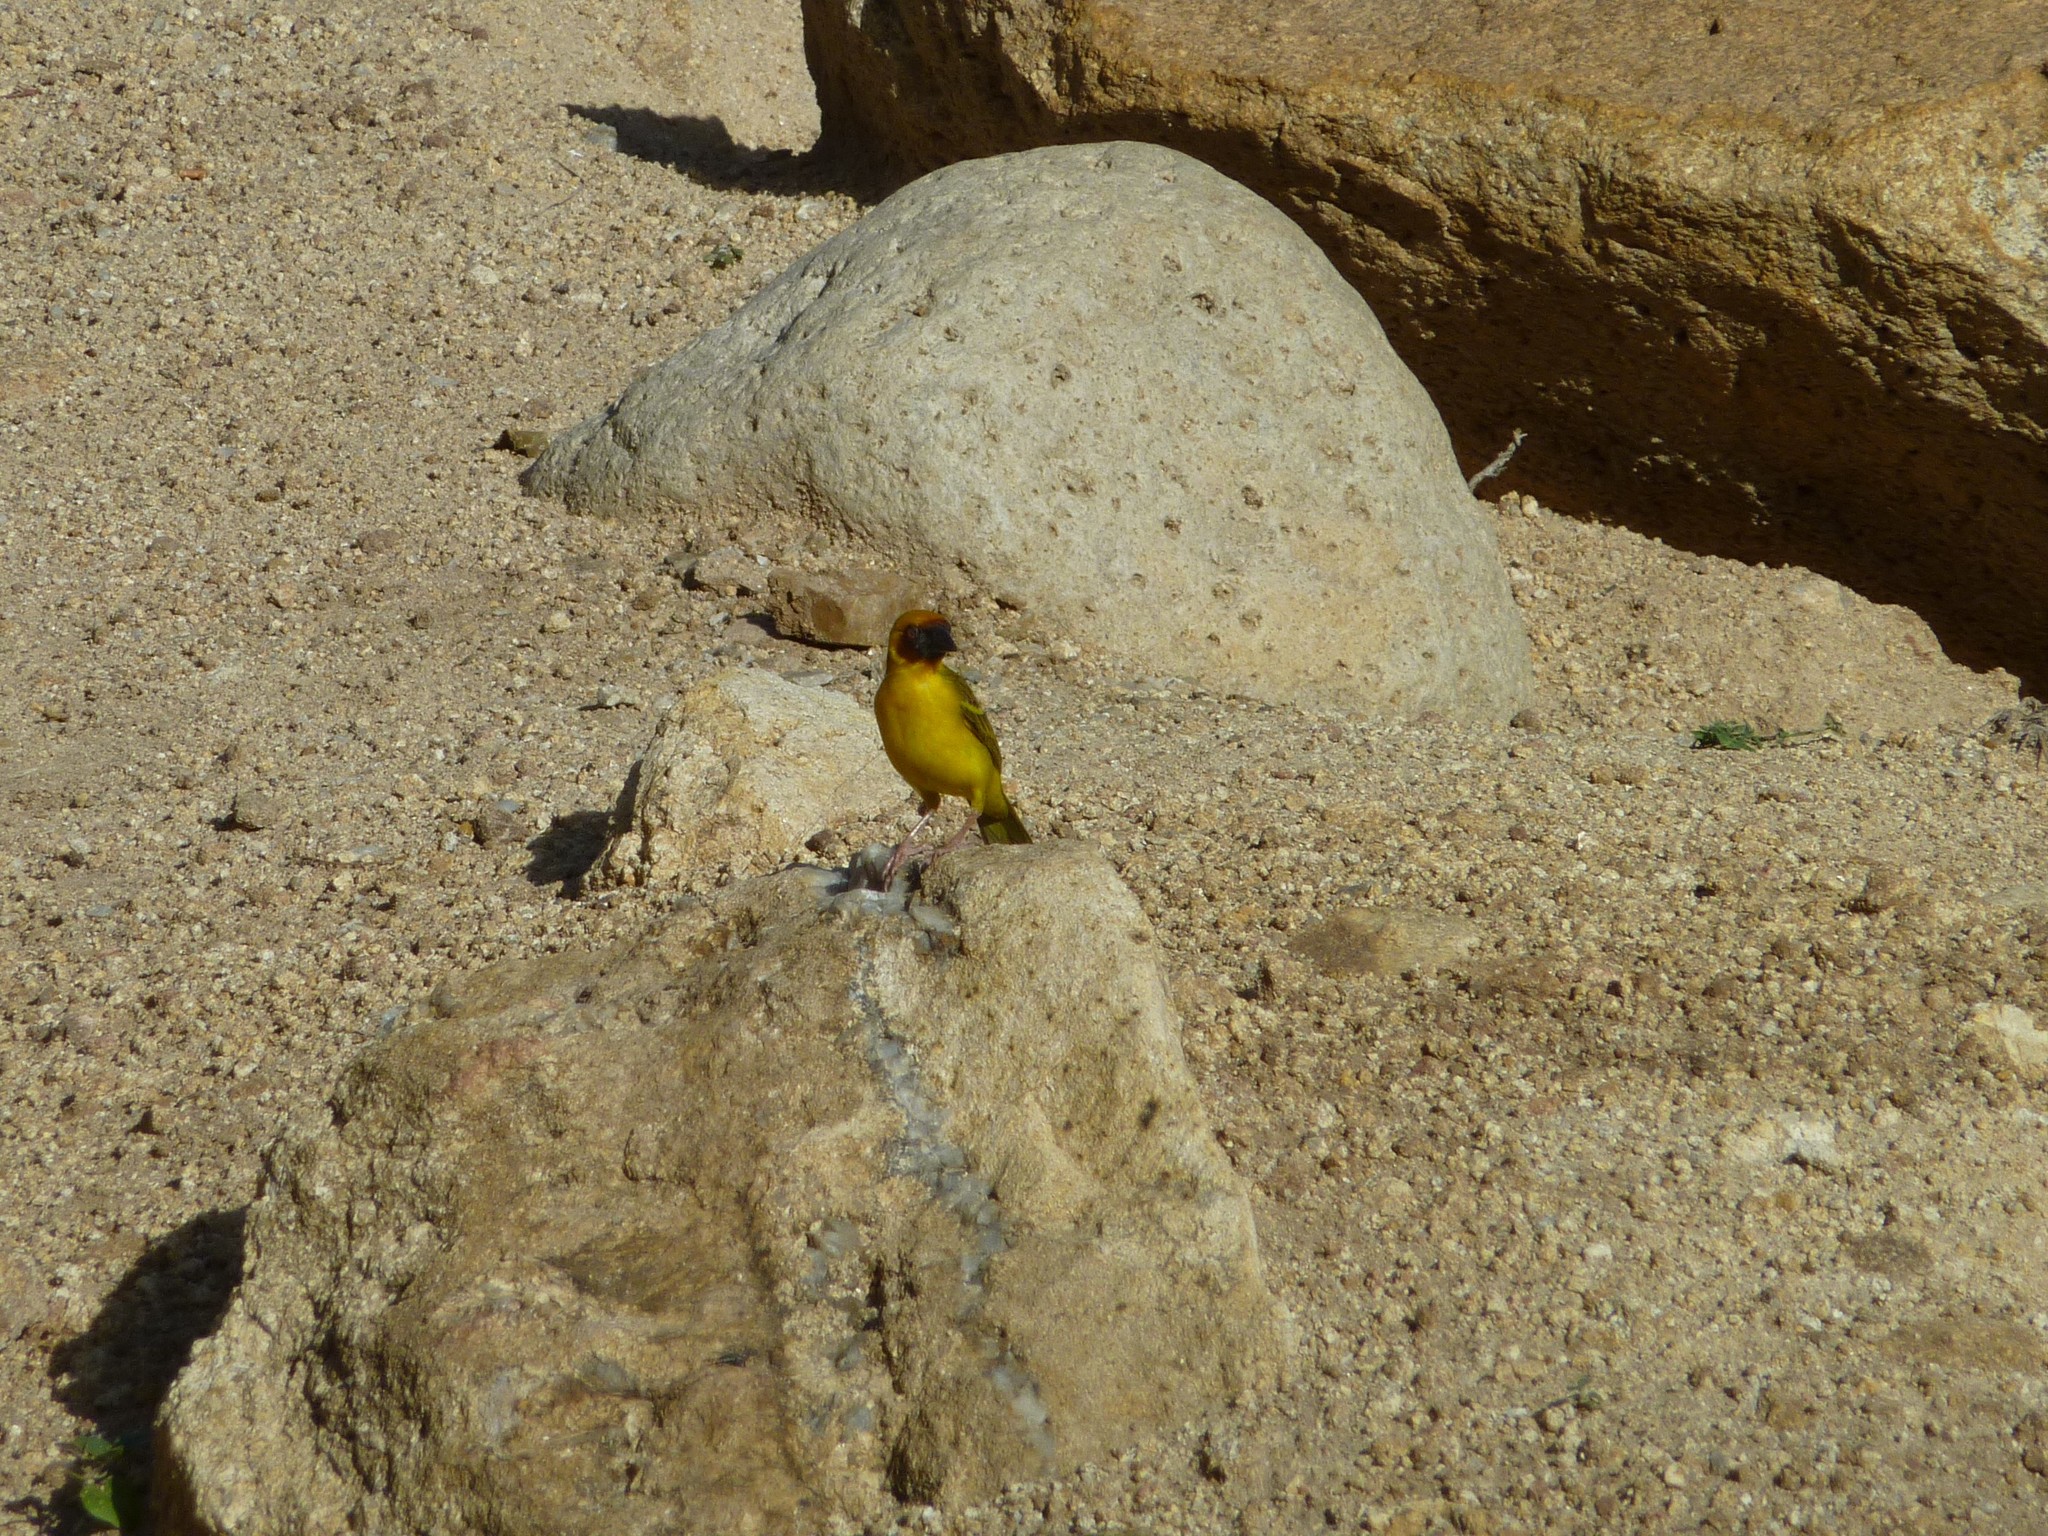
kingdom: Animalia
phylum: Chordata
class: Aves
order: Passeriformes
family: Ploceidae
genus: Ploceus
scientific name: Ploceus galbula
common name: Rüppell's weaver
